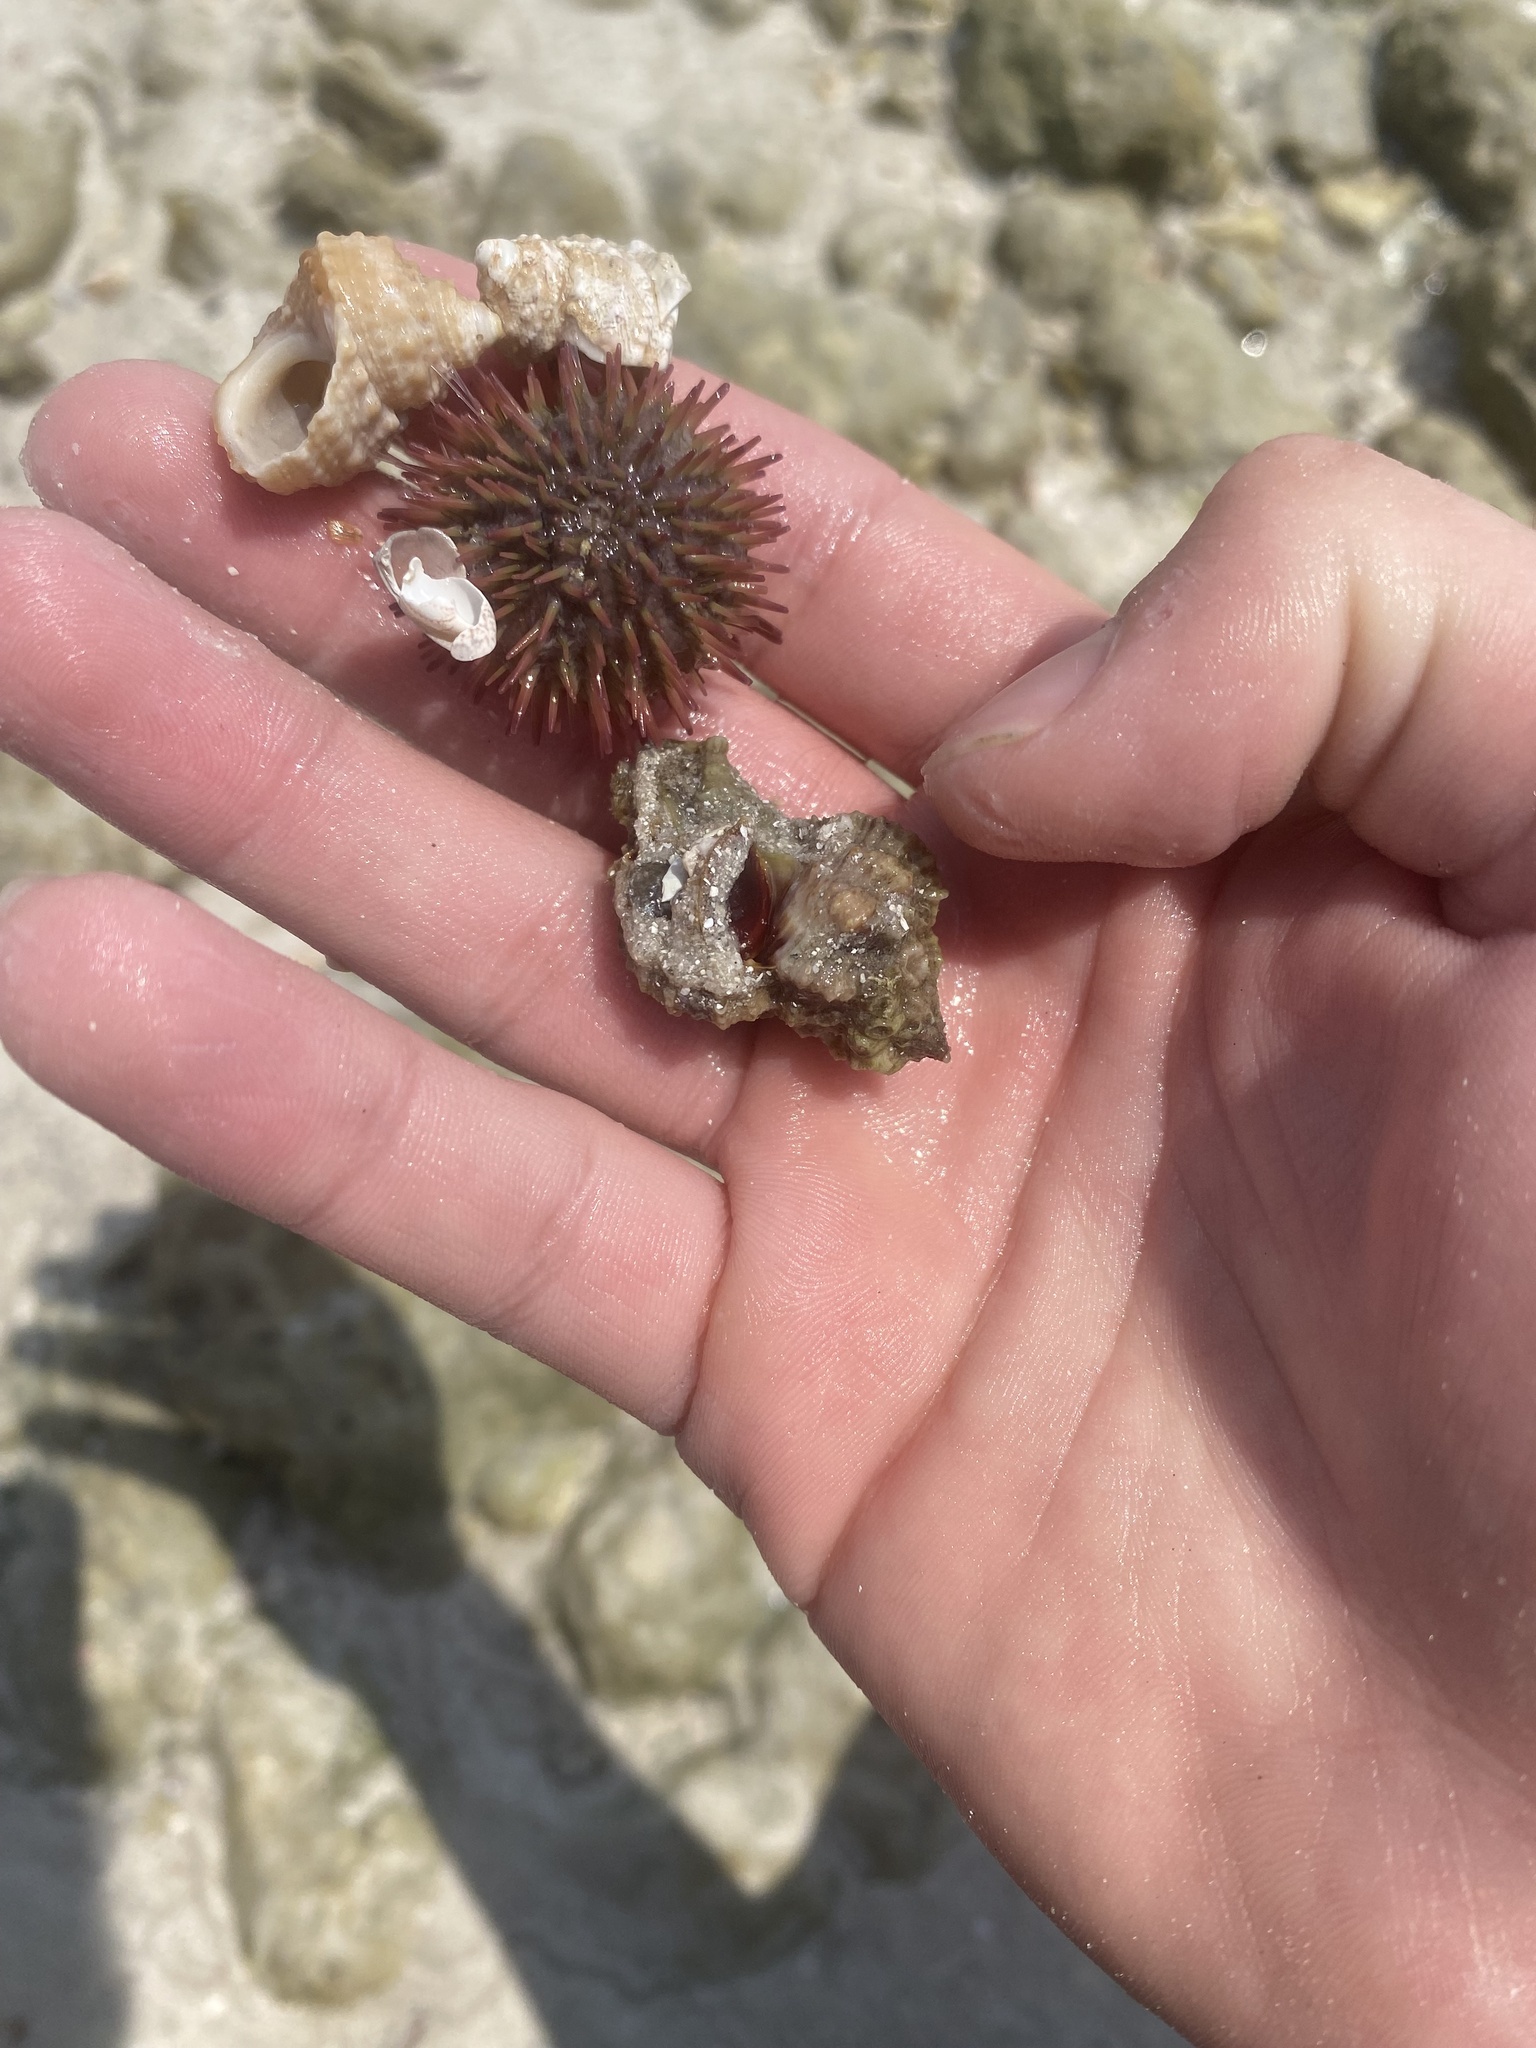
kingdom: Animalia
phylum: Echinodermata
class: Echinoidea
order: Camarodonta
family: Toxopneustidae
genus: Lytechinus
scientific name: Lytechinus variegatus
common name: Variegated urchin
